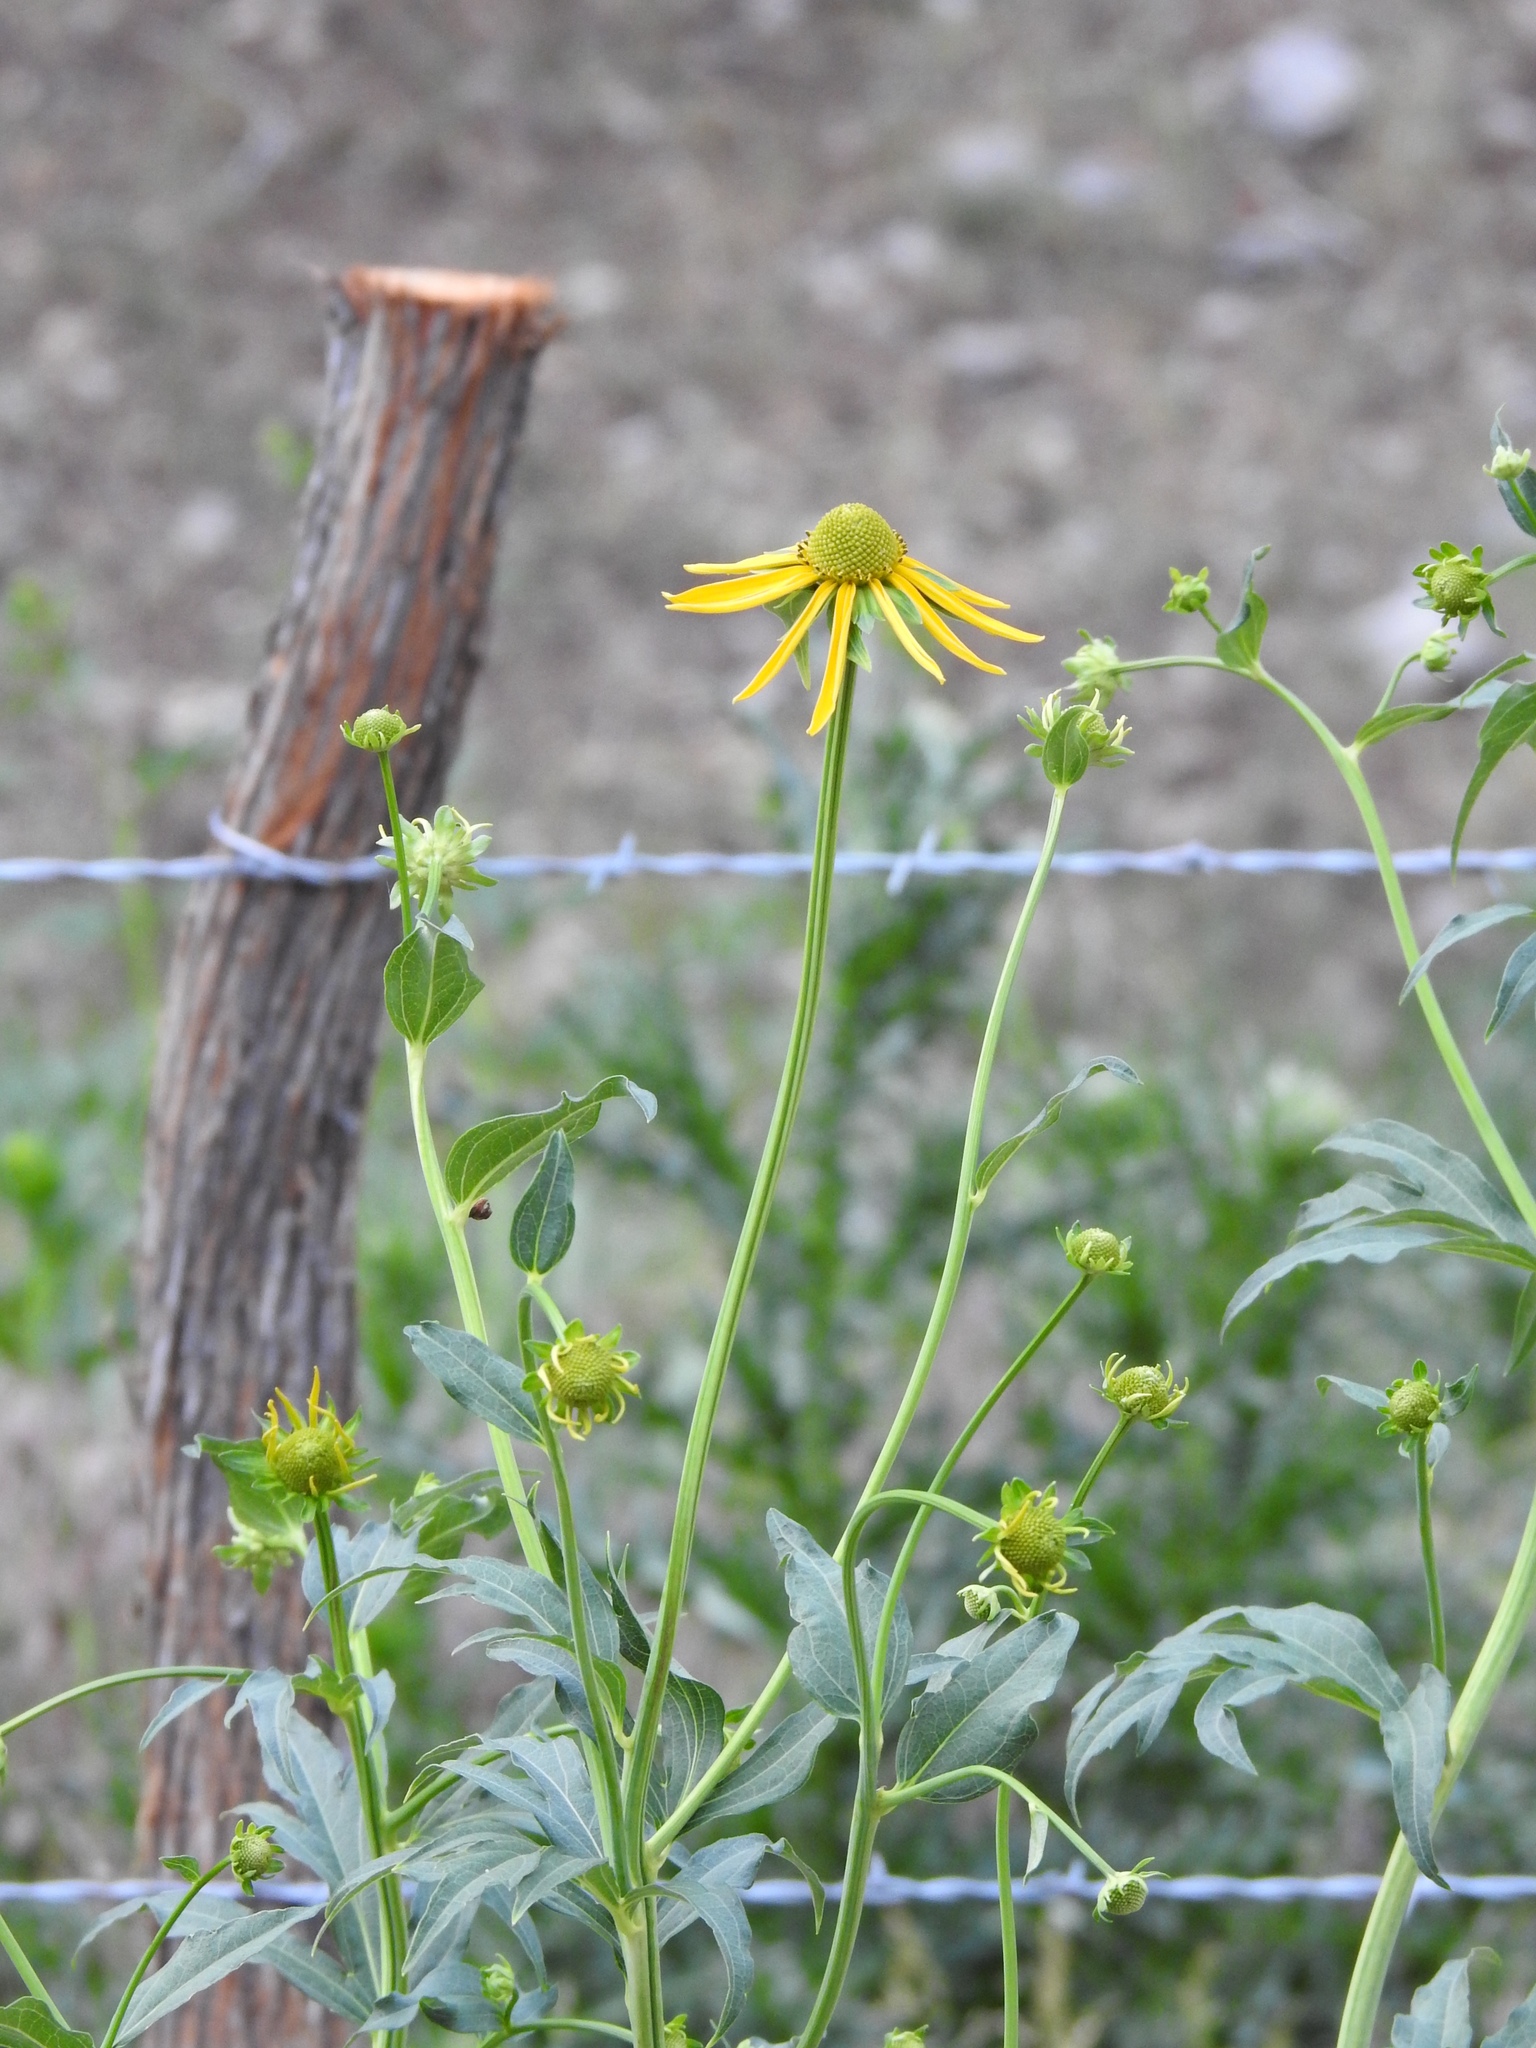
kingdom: Plantae
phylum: Tracheophyta
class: Magnoliopsida
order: Asterales
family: Asteraceae
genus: Rudbeckia
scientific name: Rudbeckia laciniata
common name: Coneflower
